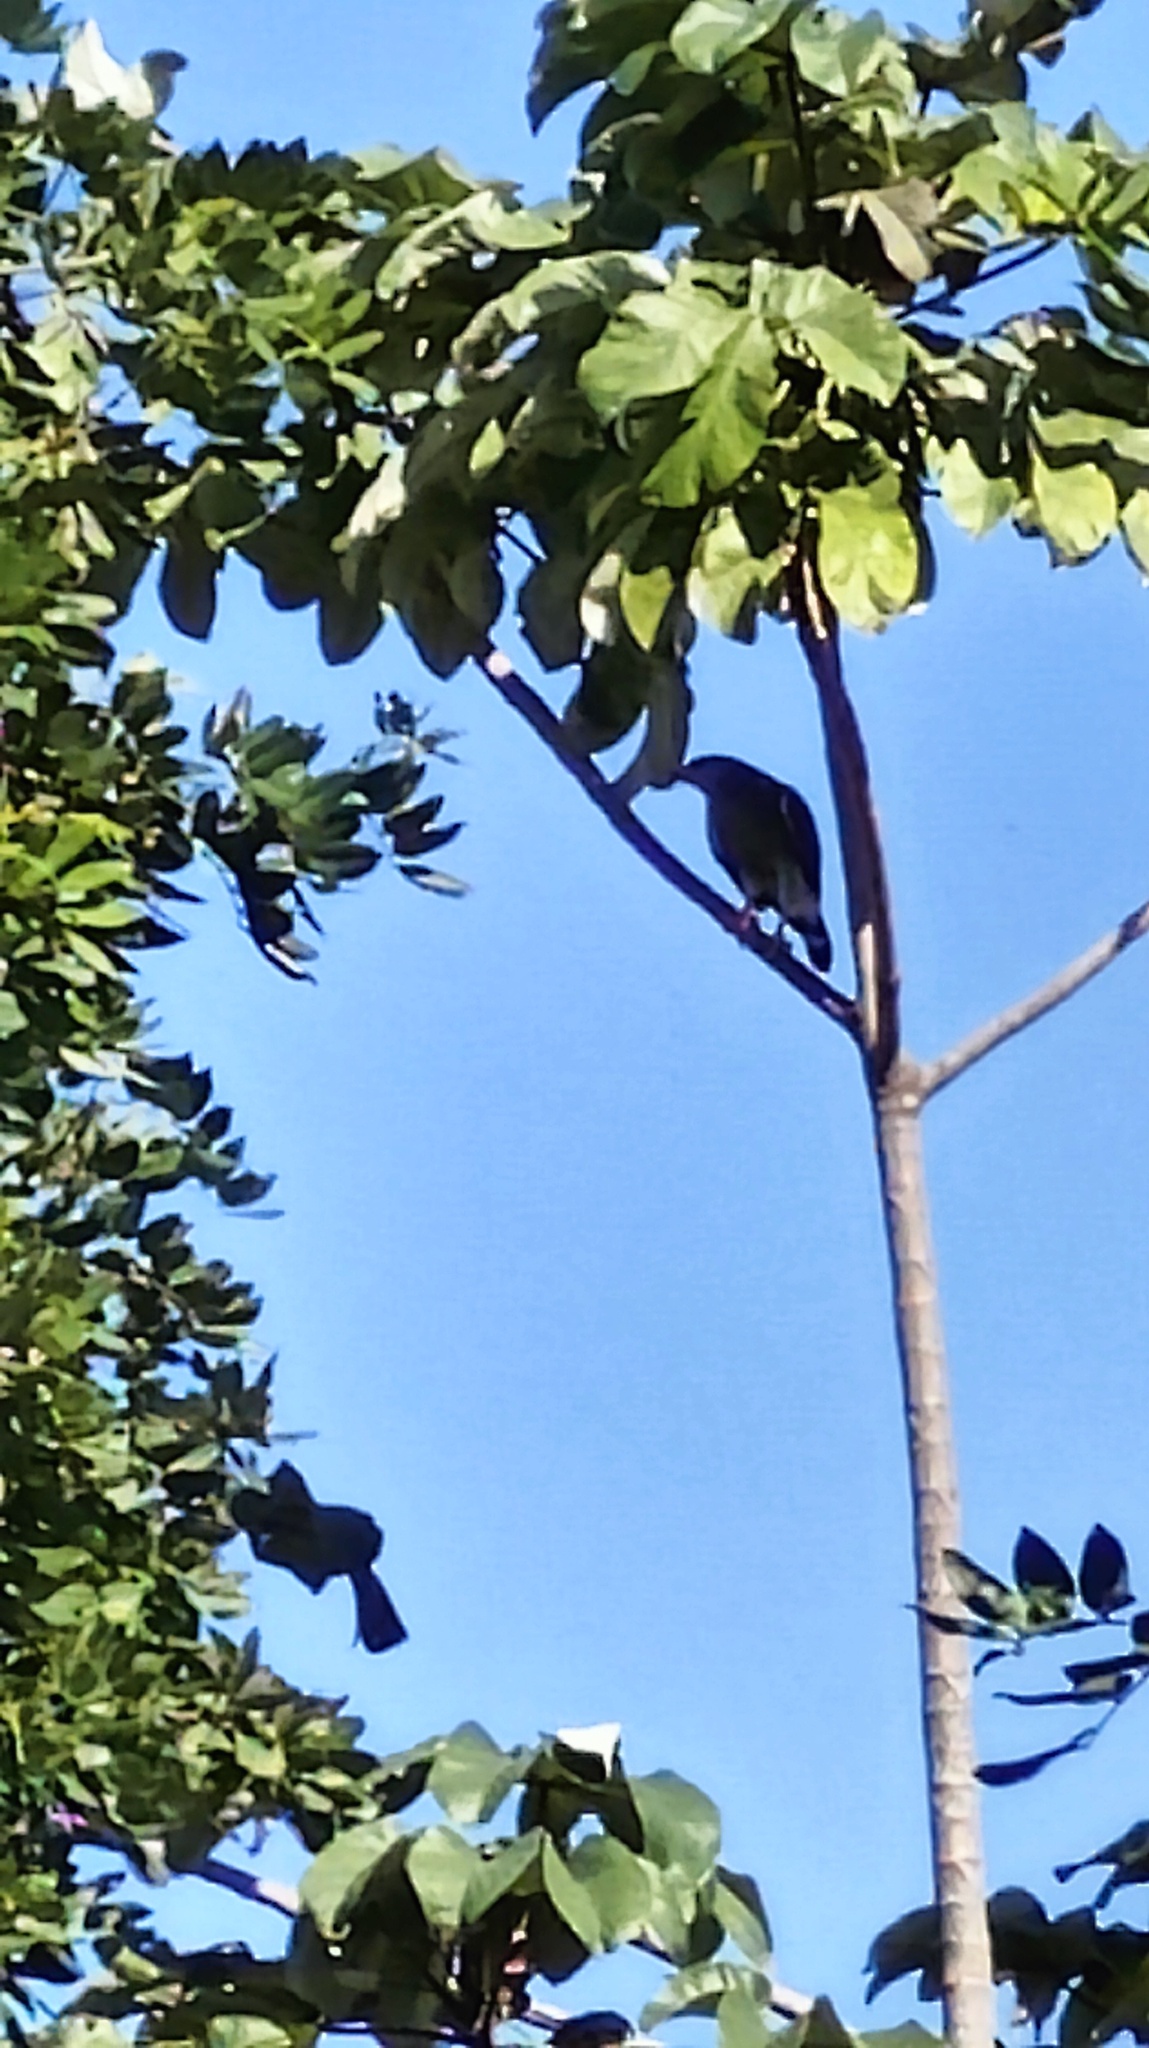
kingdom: Animalia
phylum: Chordata
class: Aves
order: Accipitriformes
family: Accipitridae
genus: Buteo
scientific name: Buteo nitidus
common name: Grey-lined hawk
